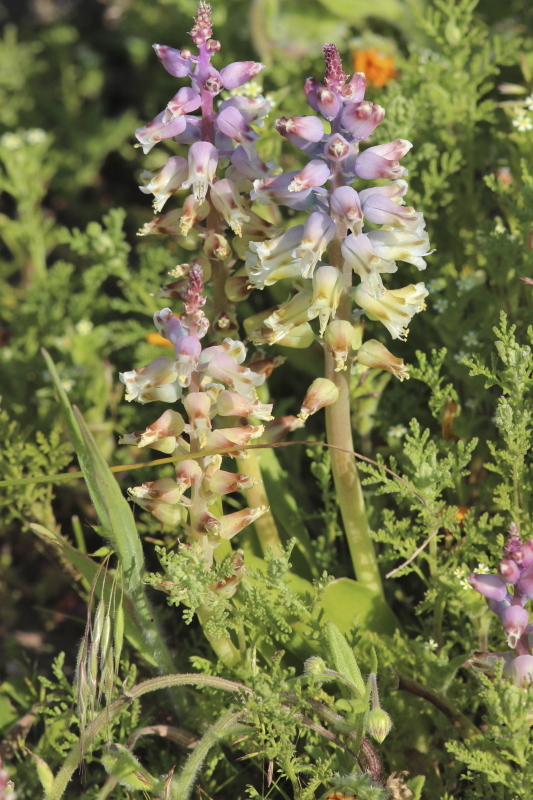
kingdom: Plantae
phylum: Tracheophyta
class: Liliopsida
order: Asparagales
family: Asparagaceae
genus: Lachenalia
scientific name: Lachenalia pallida
